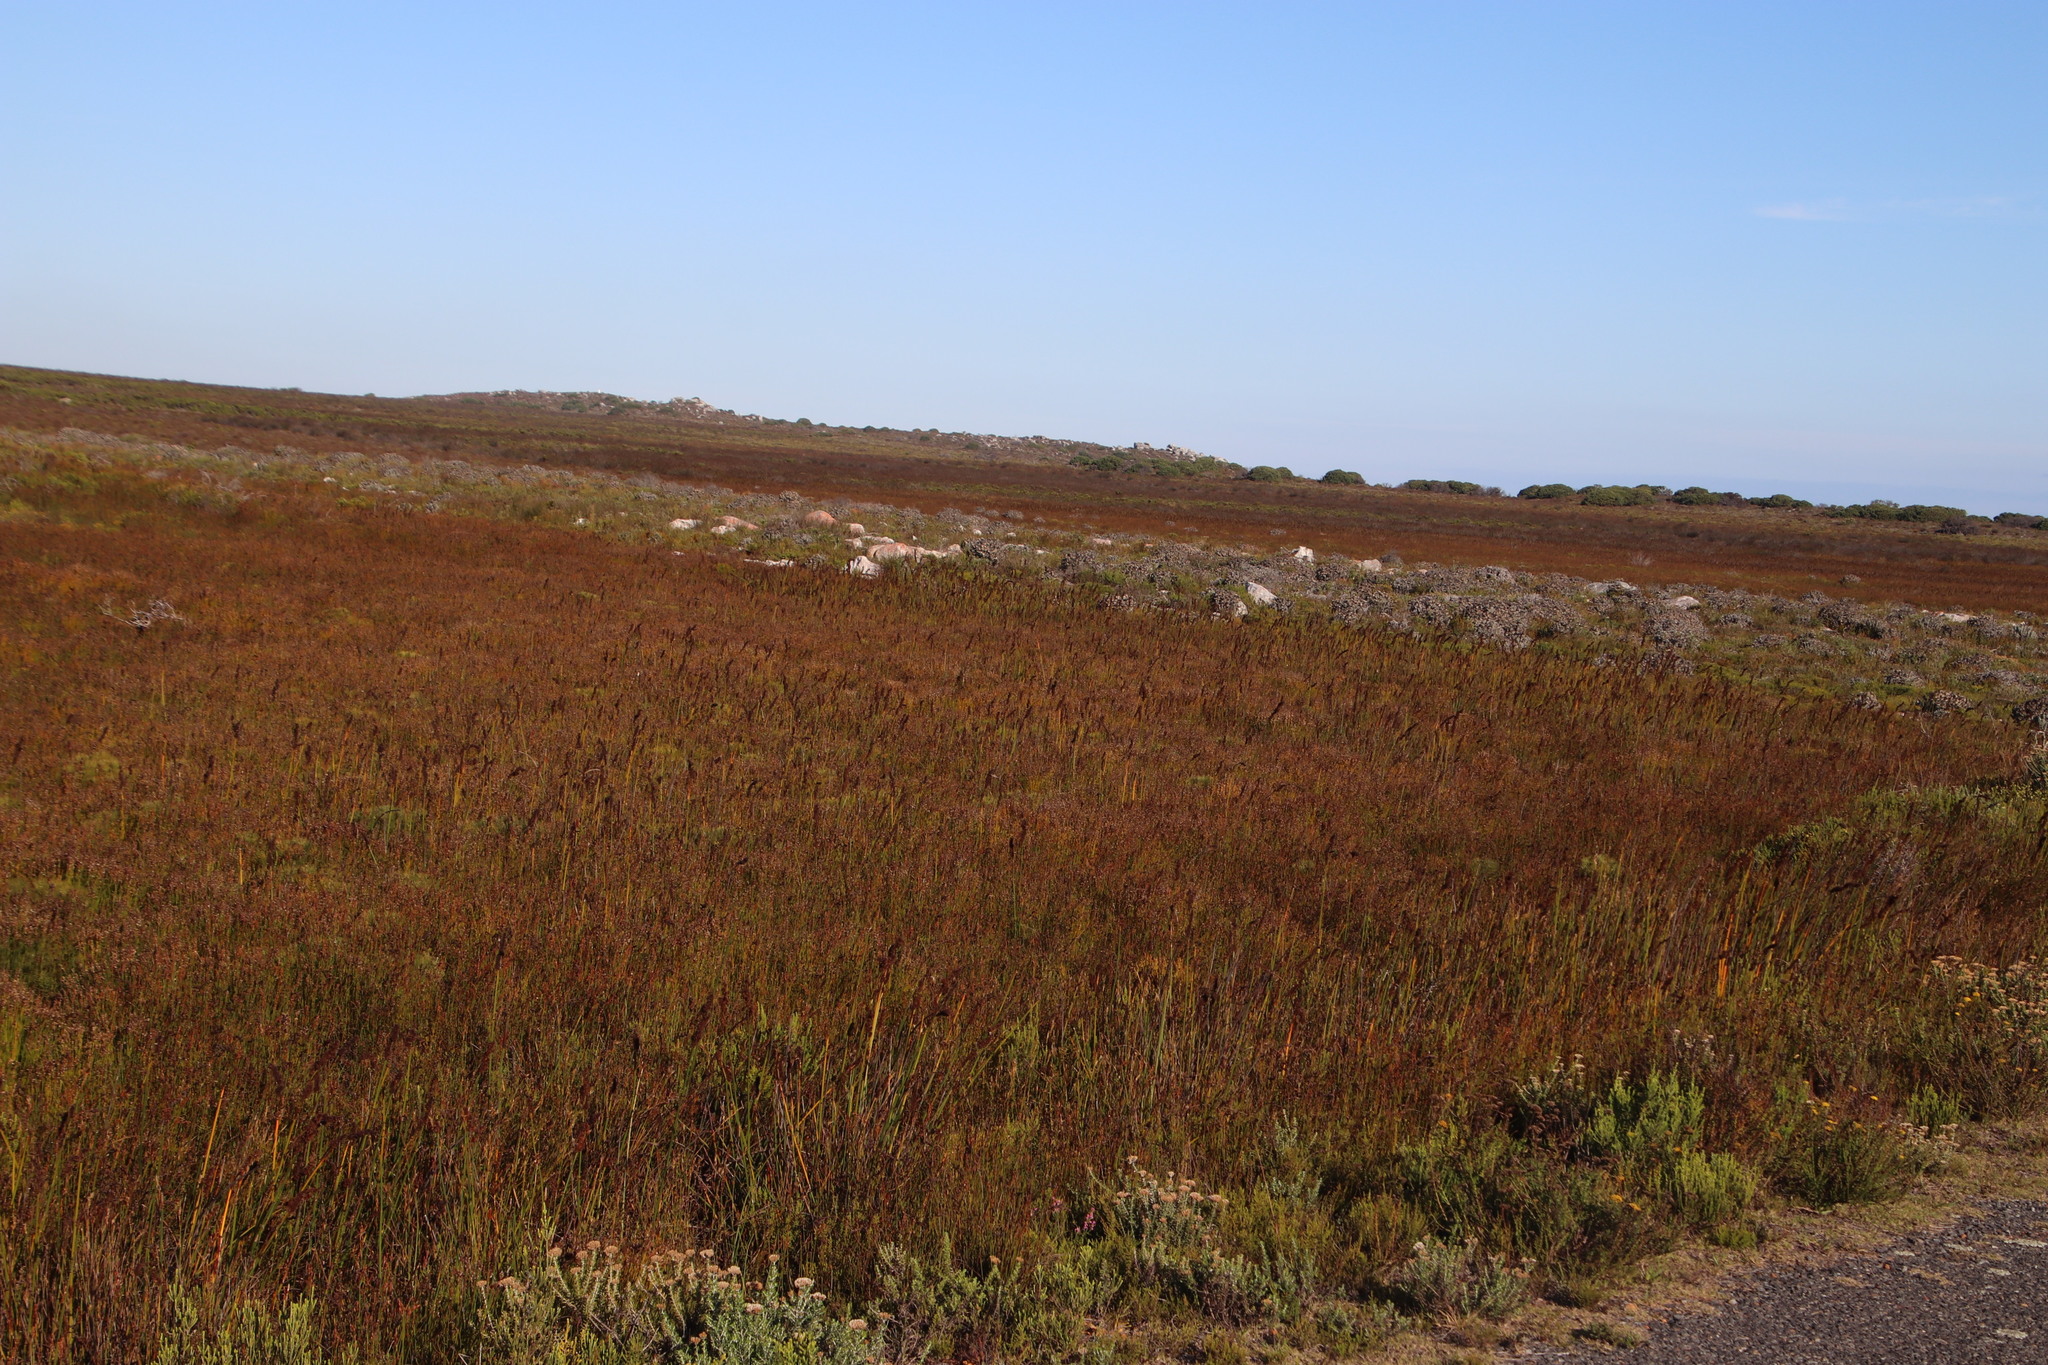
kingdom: Plantae
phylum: Tracheophyta
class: Liliopsida
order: Poales
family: Restionaceae
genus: Elegia
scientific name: Elegia nuda
